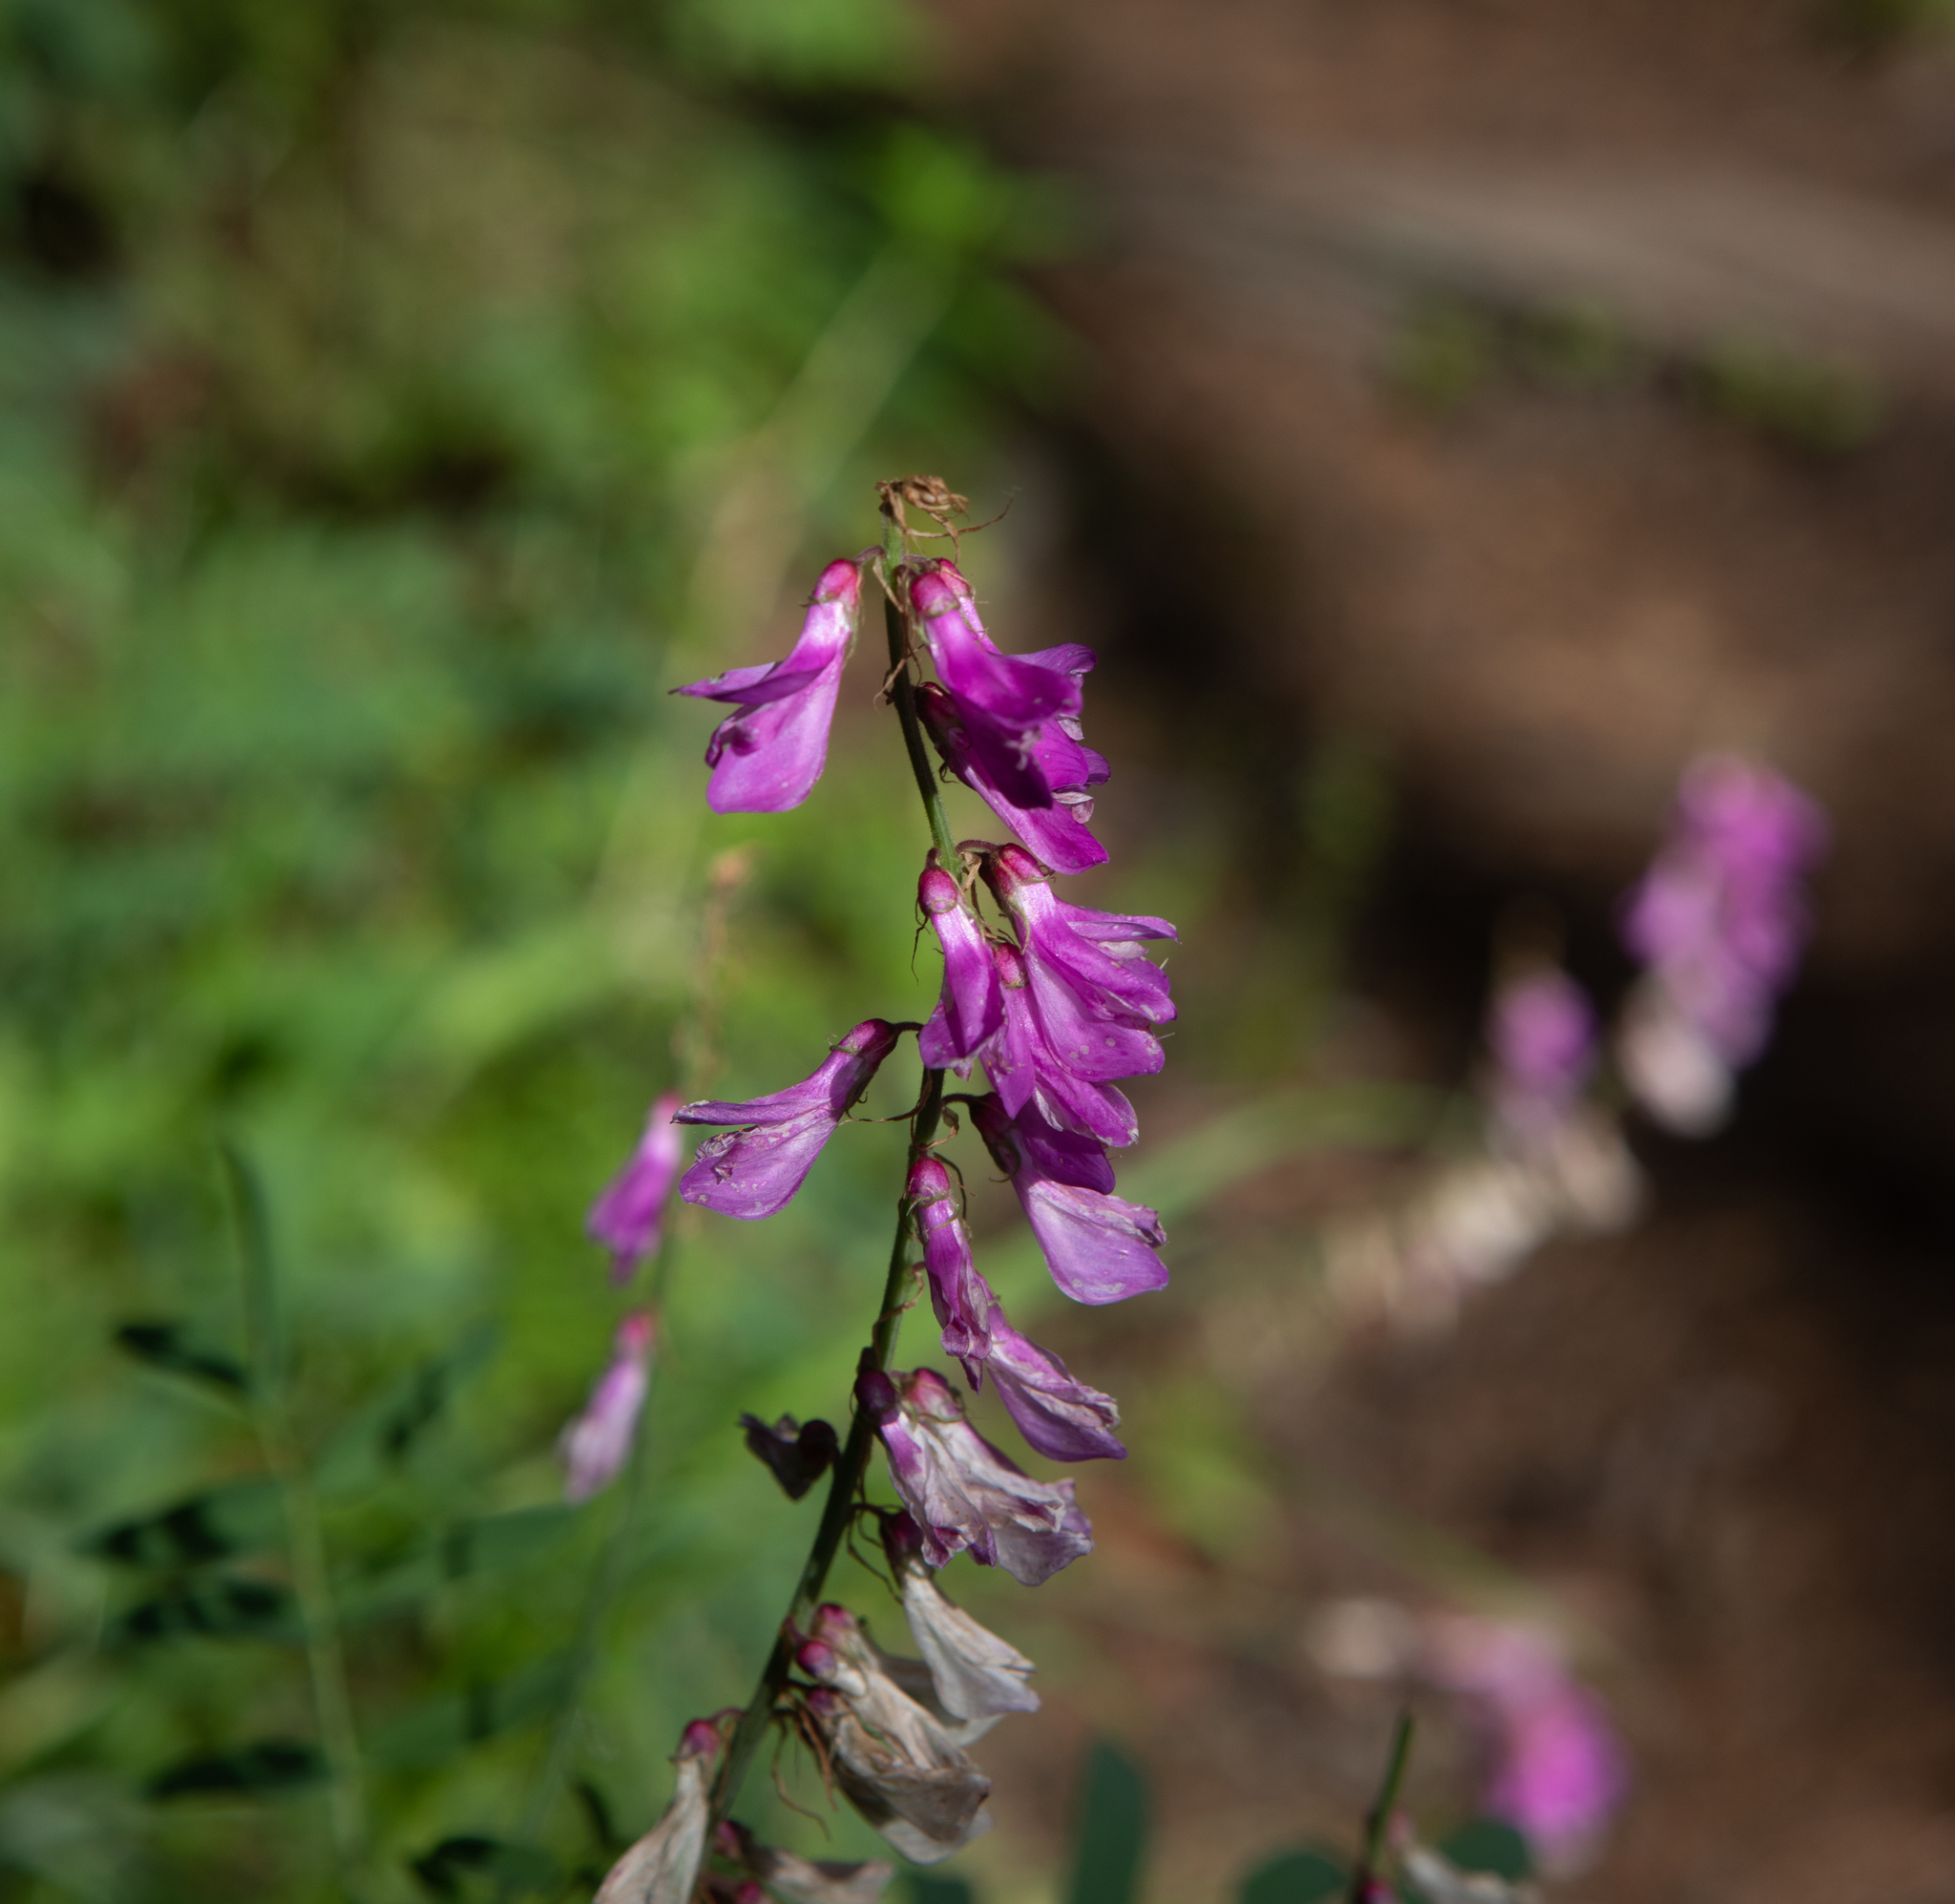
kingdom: Plantae
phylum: Tracheophyta
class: Magnoliopsida
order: Fabales
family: Fabaceae
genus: Hedysarum
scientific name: Hedysarum alpinum
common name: Alpine sweet-vetch
